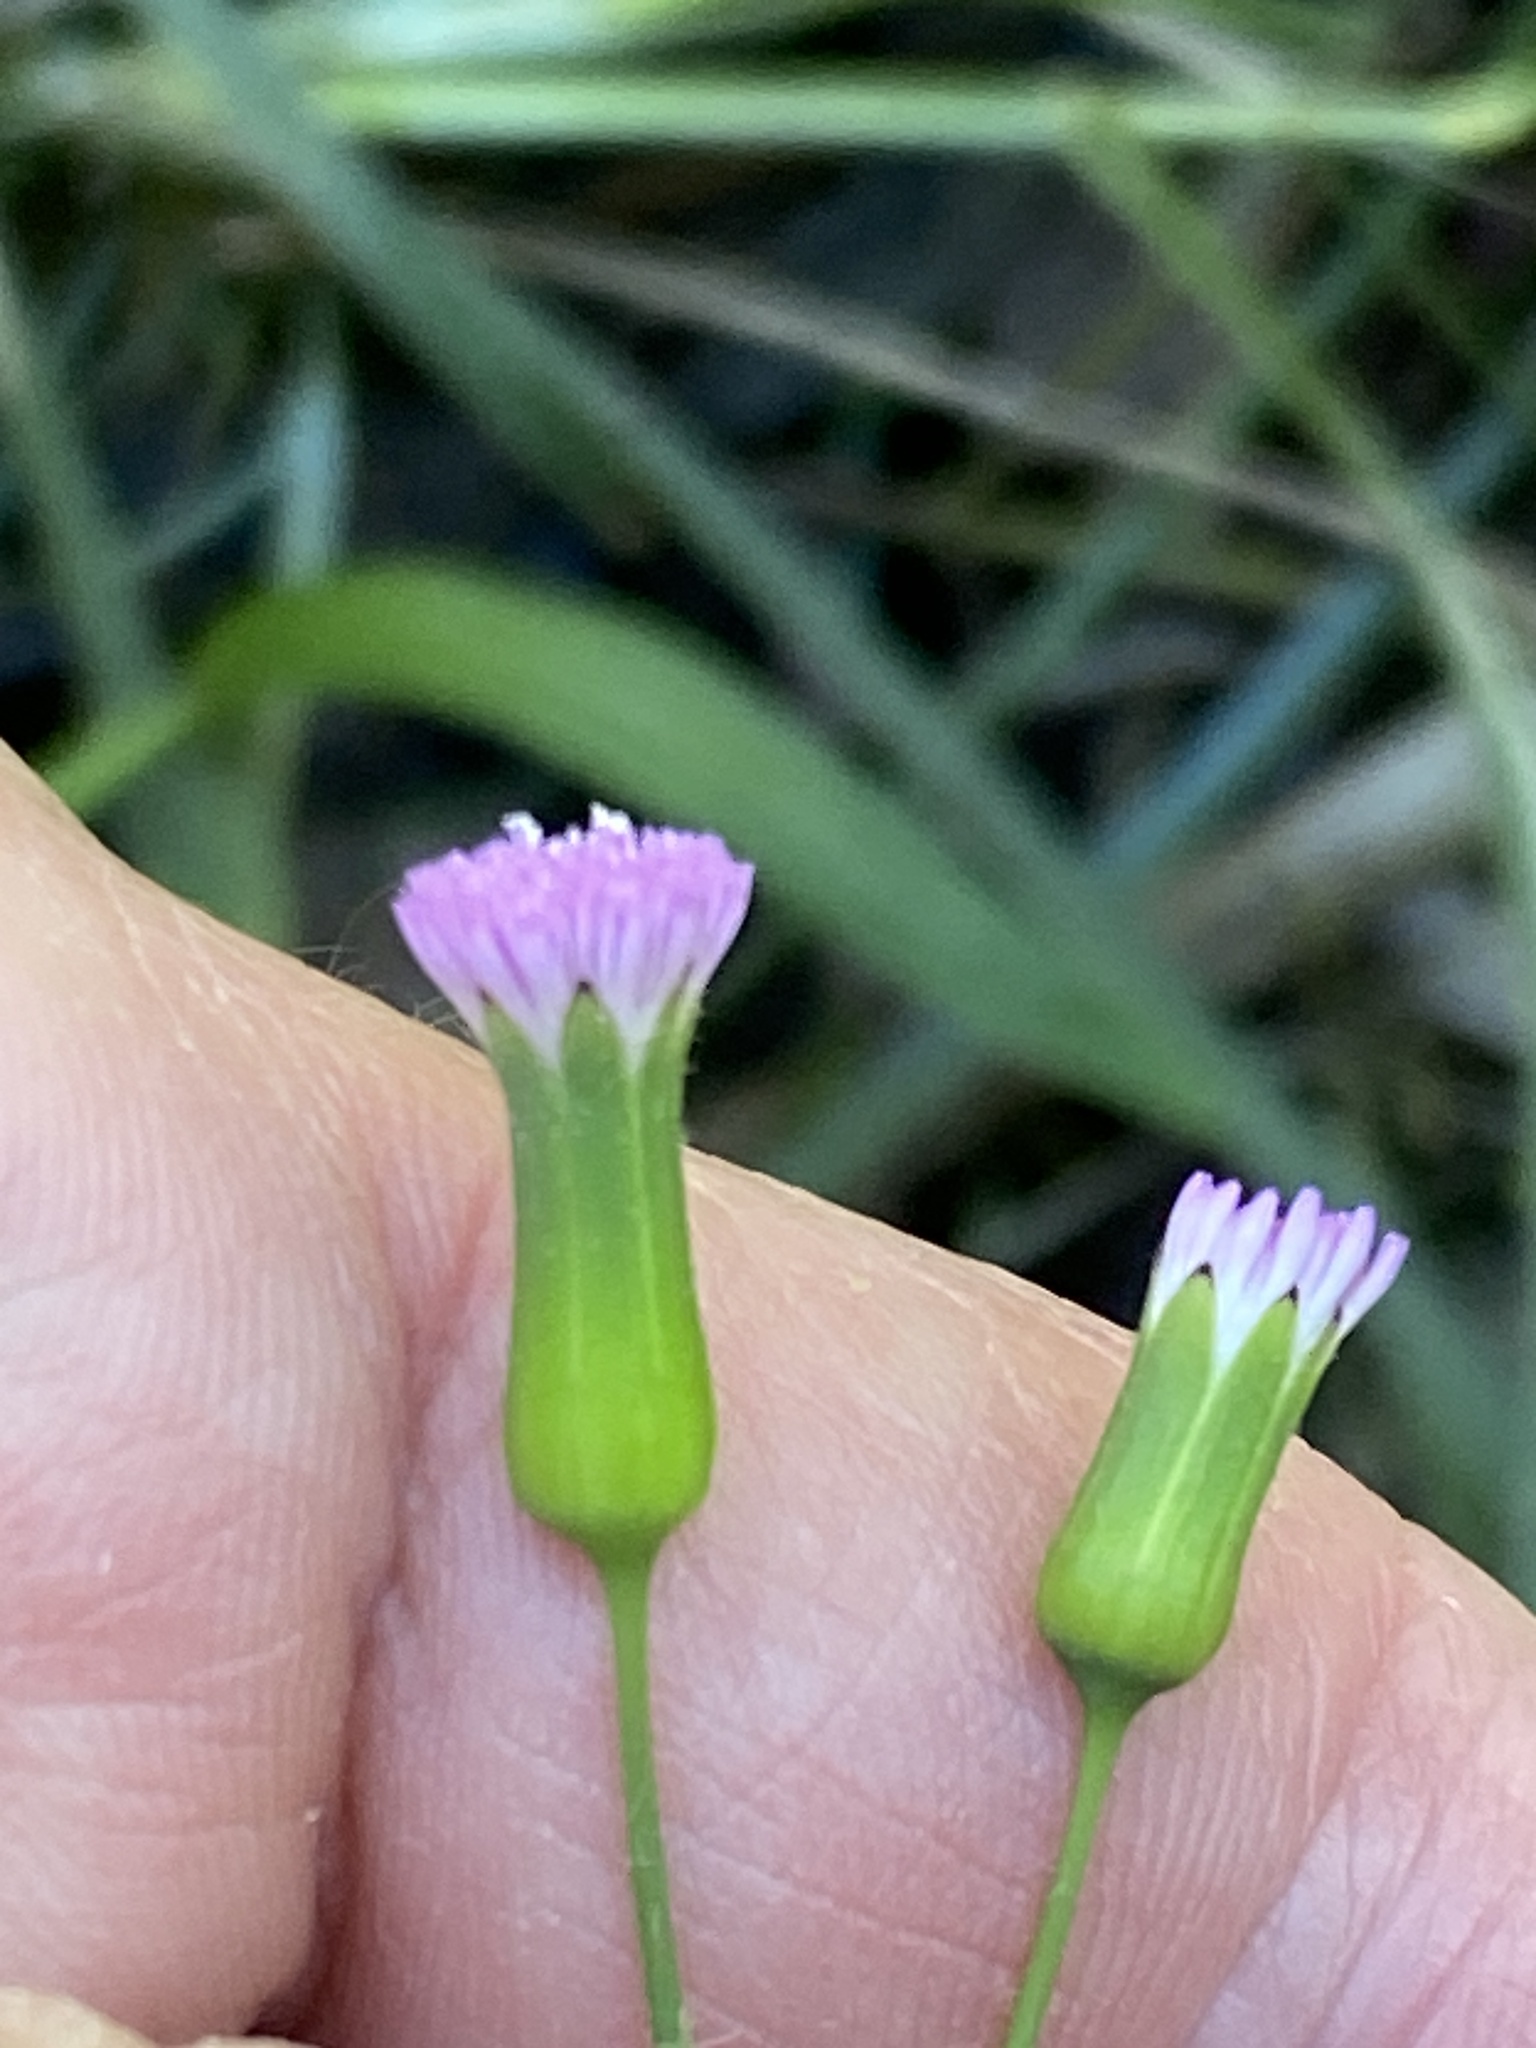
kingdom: Plantae
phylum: Tracheophyta
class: Magnoliopsida
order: Asterales
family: Asteraceae
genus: Emilia
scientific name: Emilia javanica
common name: Tassel-flower
